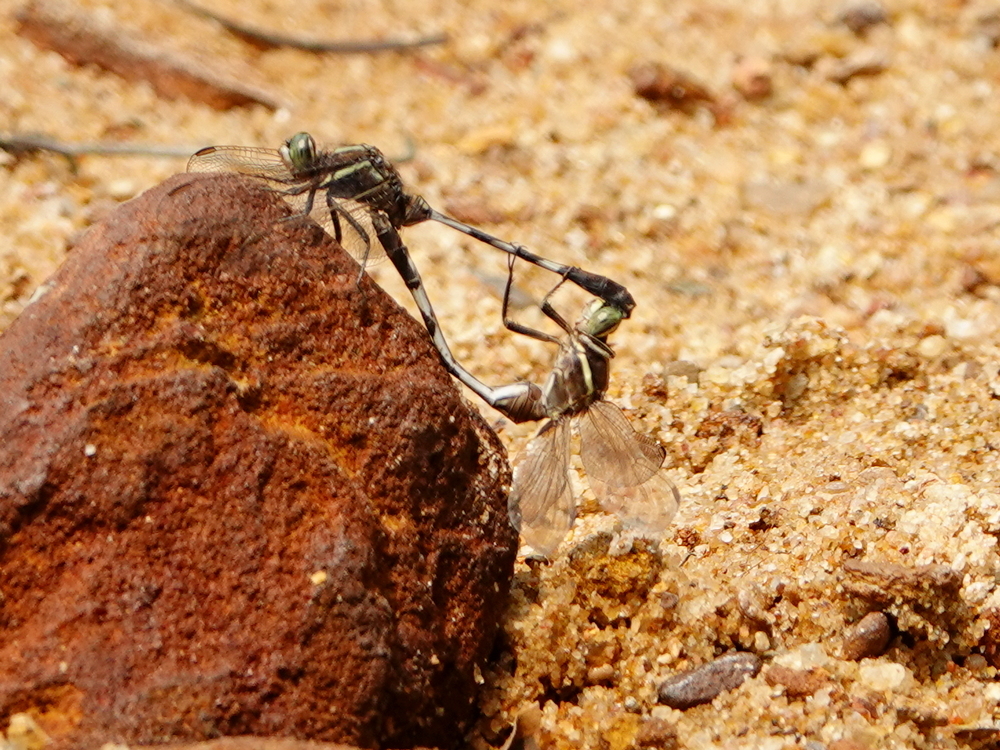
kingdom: Animalia
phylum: Arthropoda
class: Insecta
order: Odonata
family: Libellulidae
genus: Orthetrum
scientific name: Orthetrum sabina
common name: Slender skimmer
